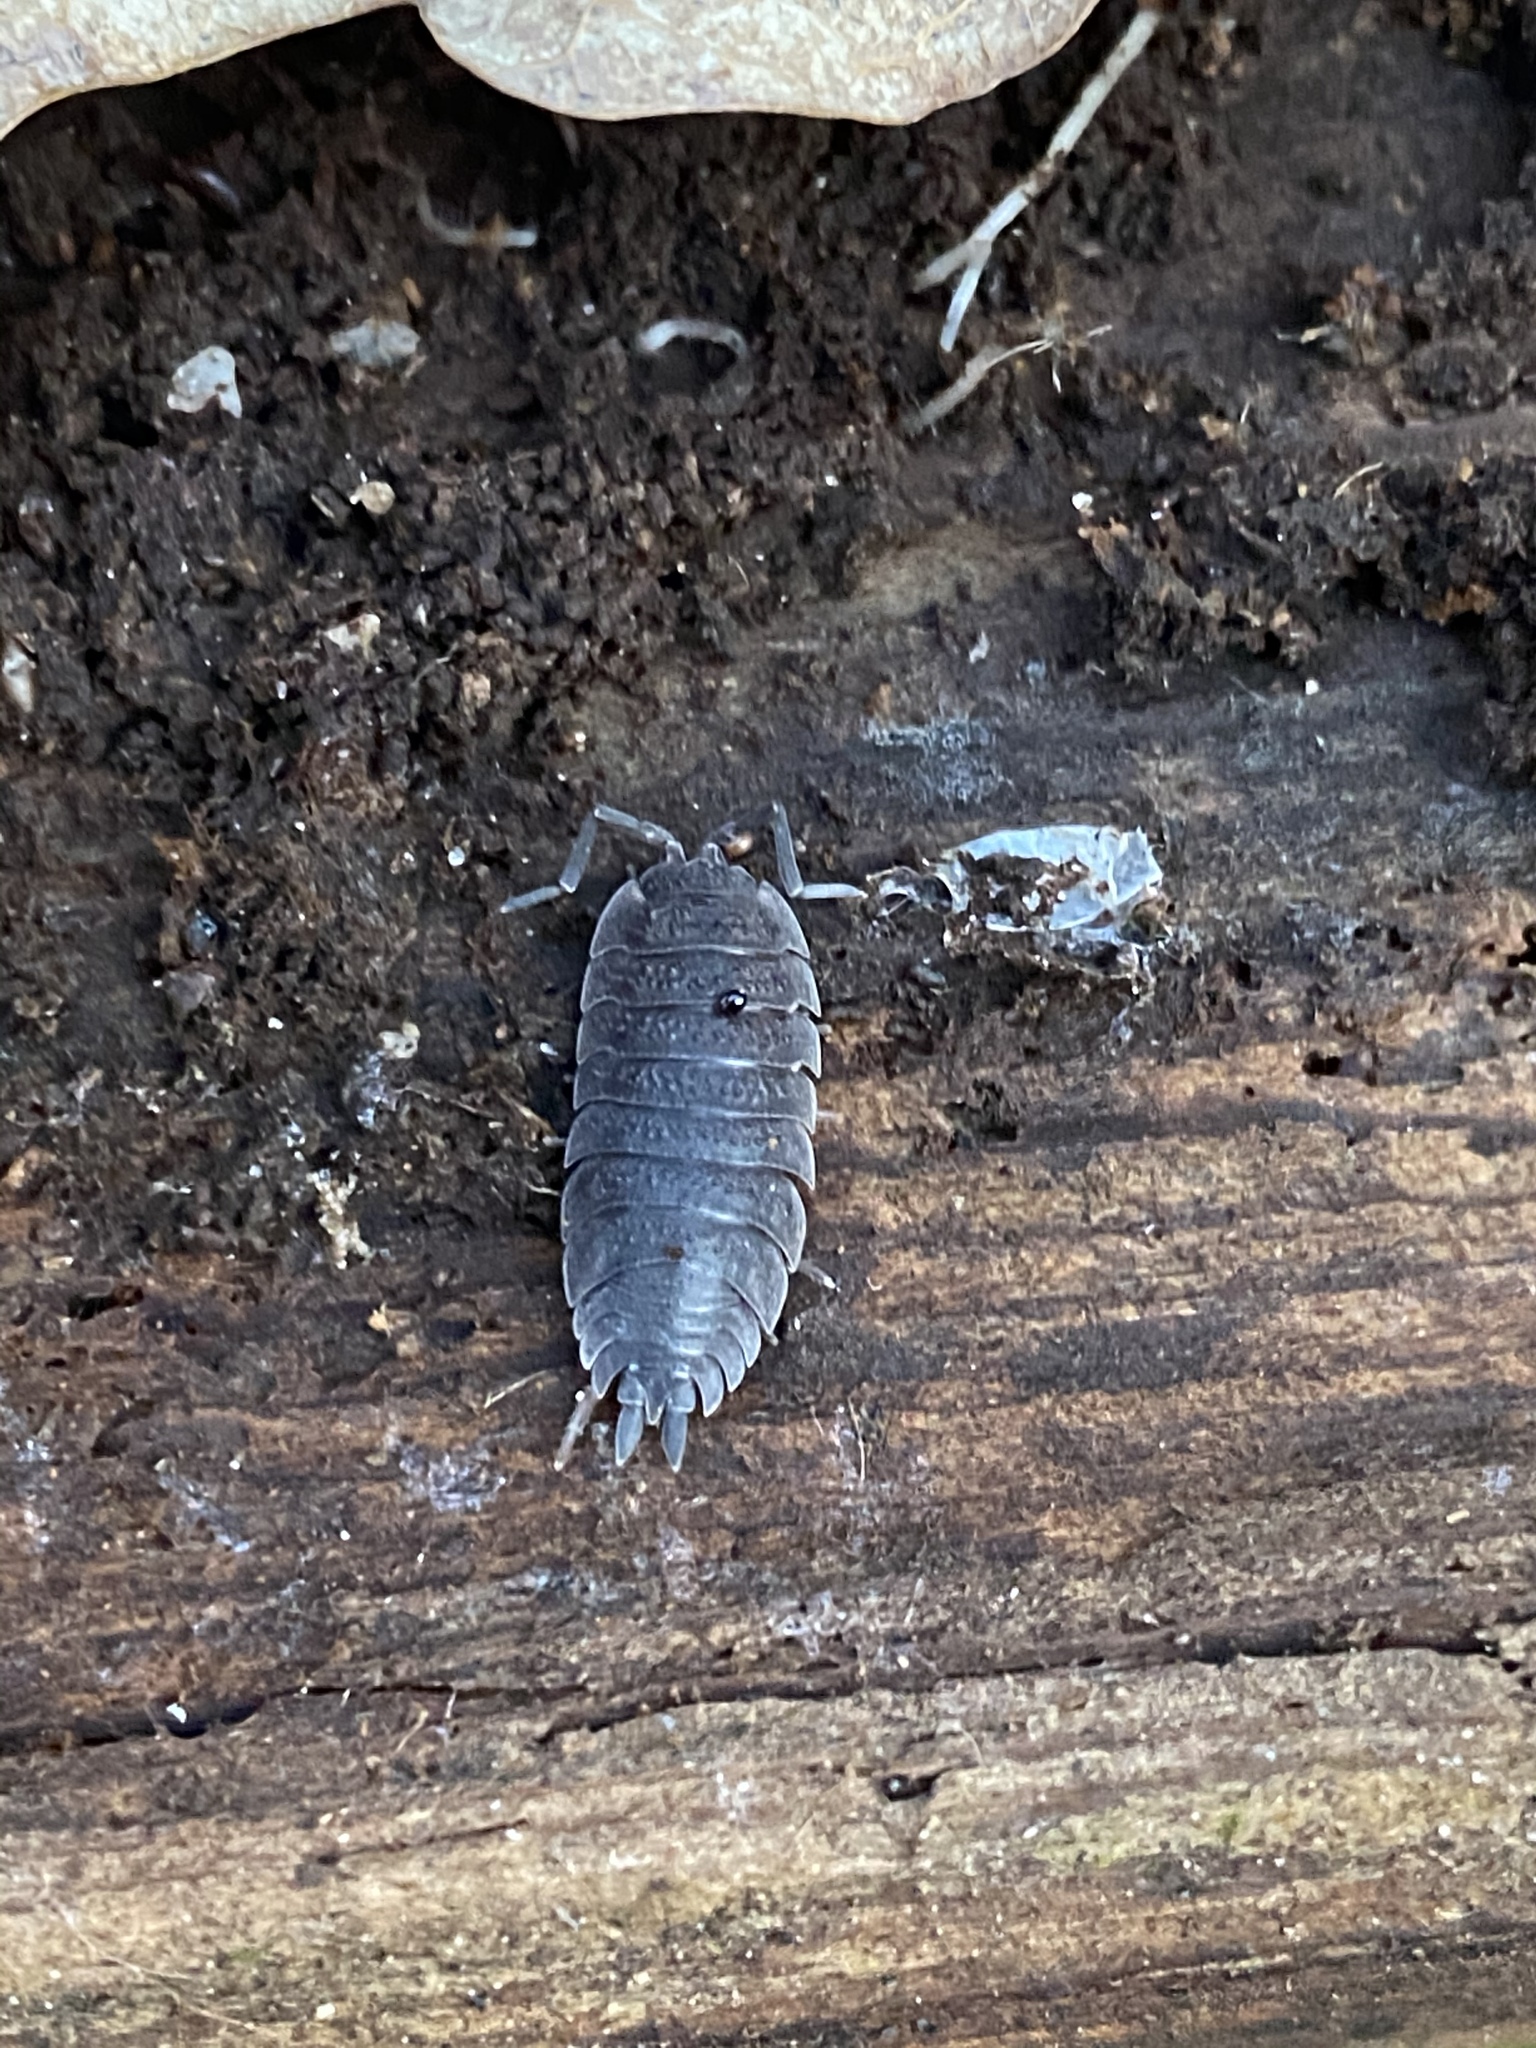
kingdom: Animalia
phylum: Arthropoda
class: Malacostraca
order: Isopoda
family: Porcellionidae
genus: Porcellio
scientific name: Porcellio scaber
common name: Common rough woodlouse
